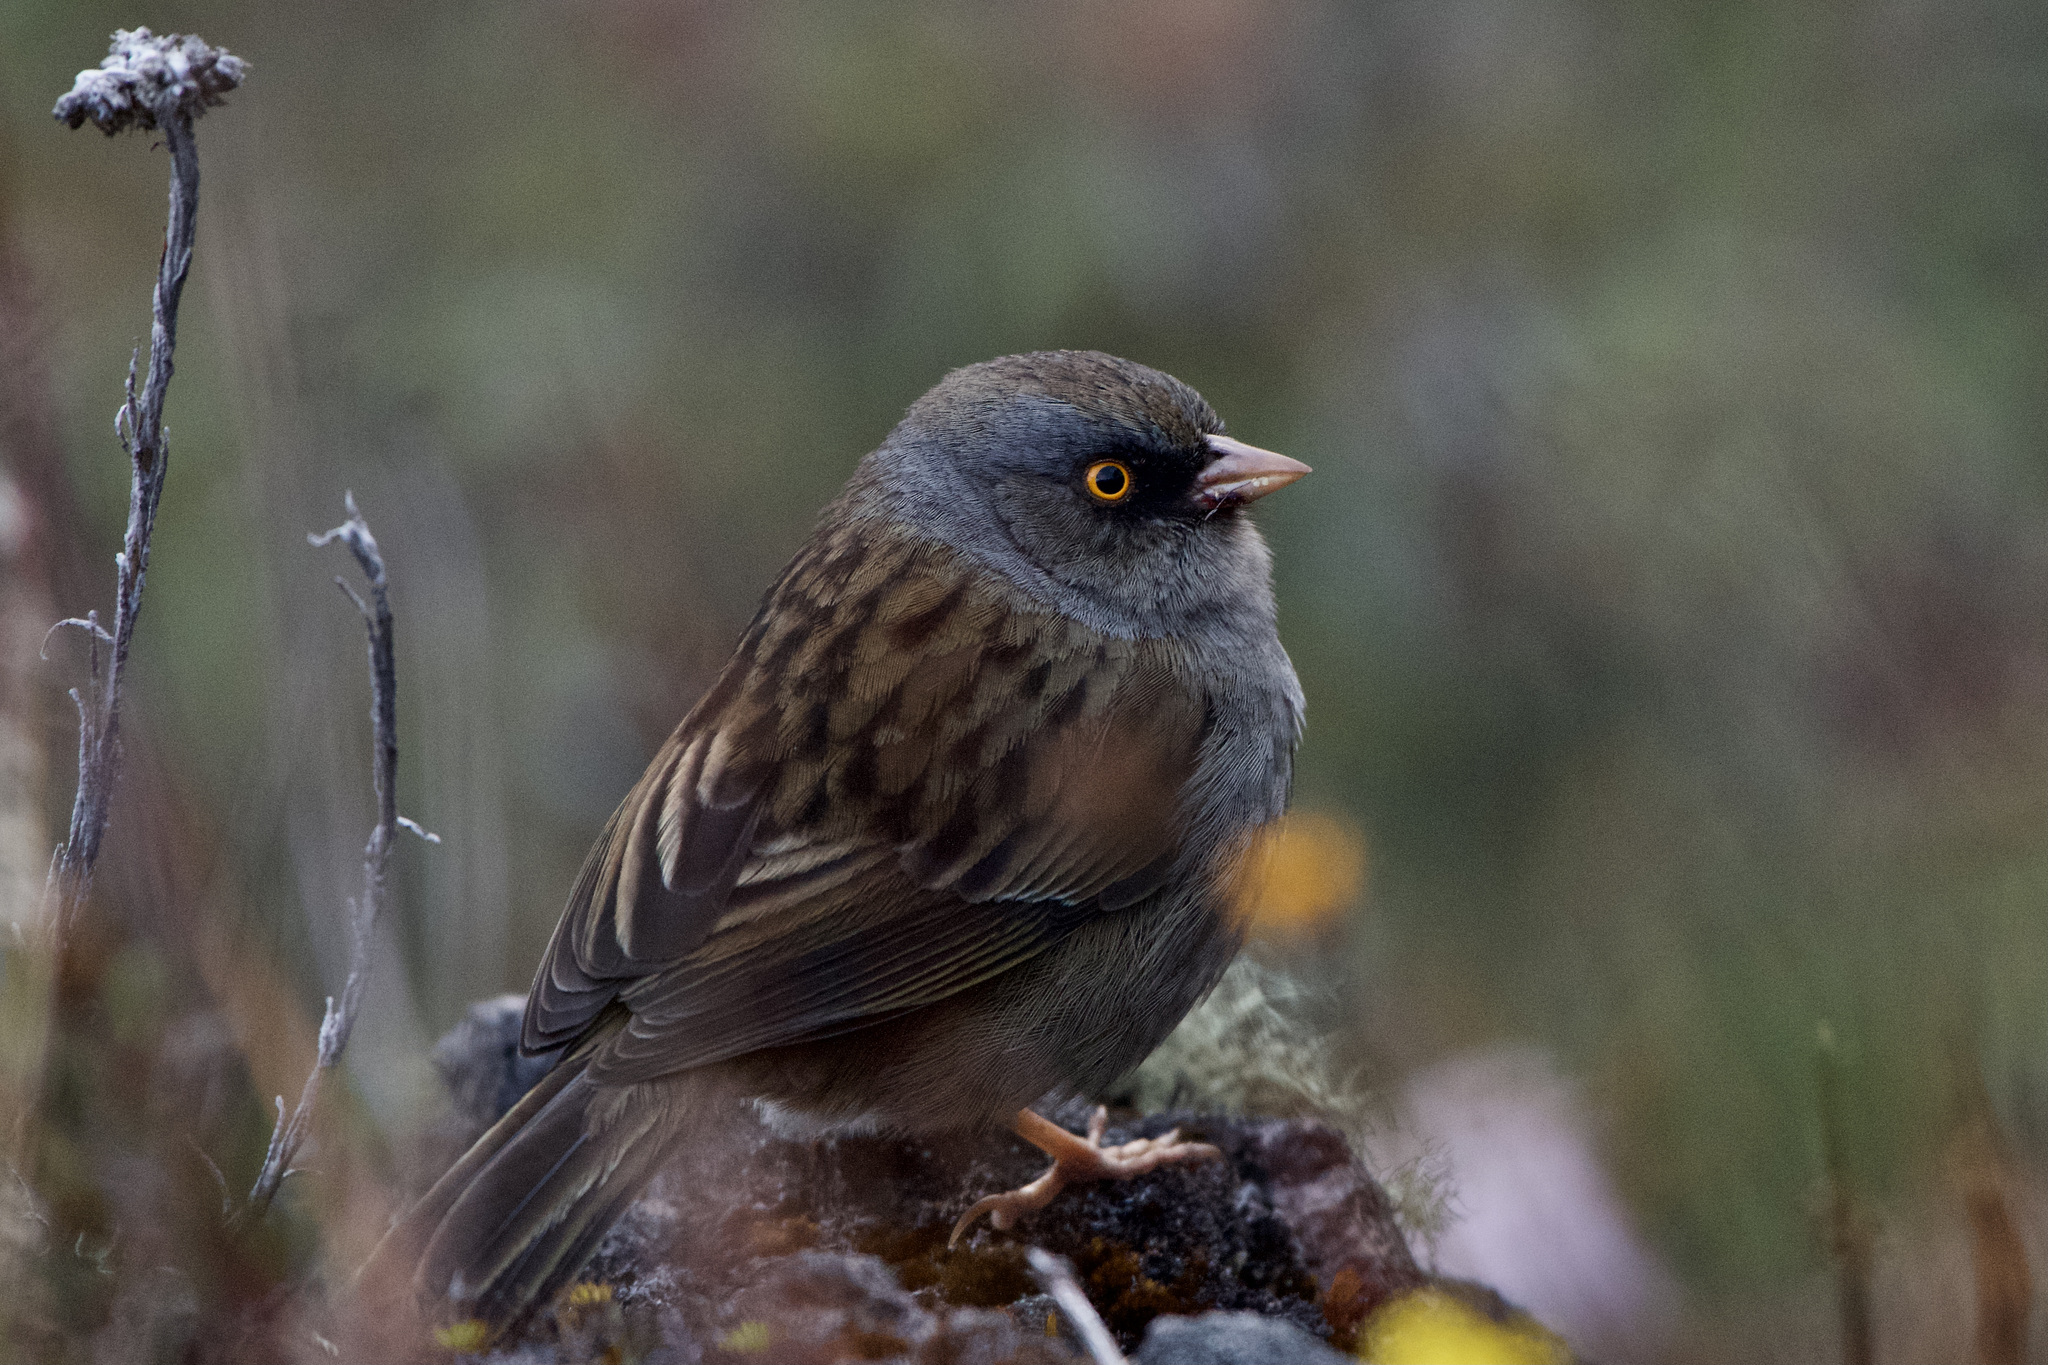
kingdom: Animalia
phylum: Chordata
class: Aves
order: Passeriformes
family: Passerellidae
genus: Junco
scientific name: Junco vulcani
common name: Volcano junco
